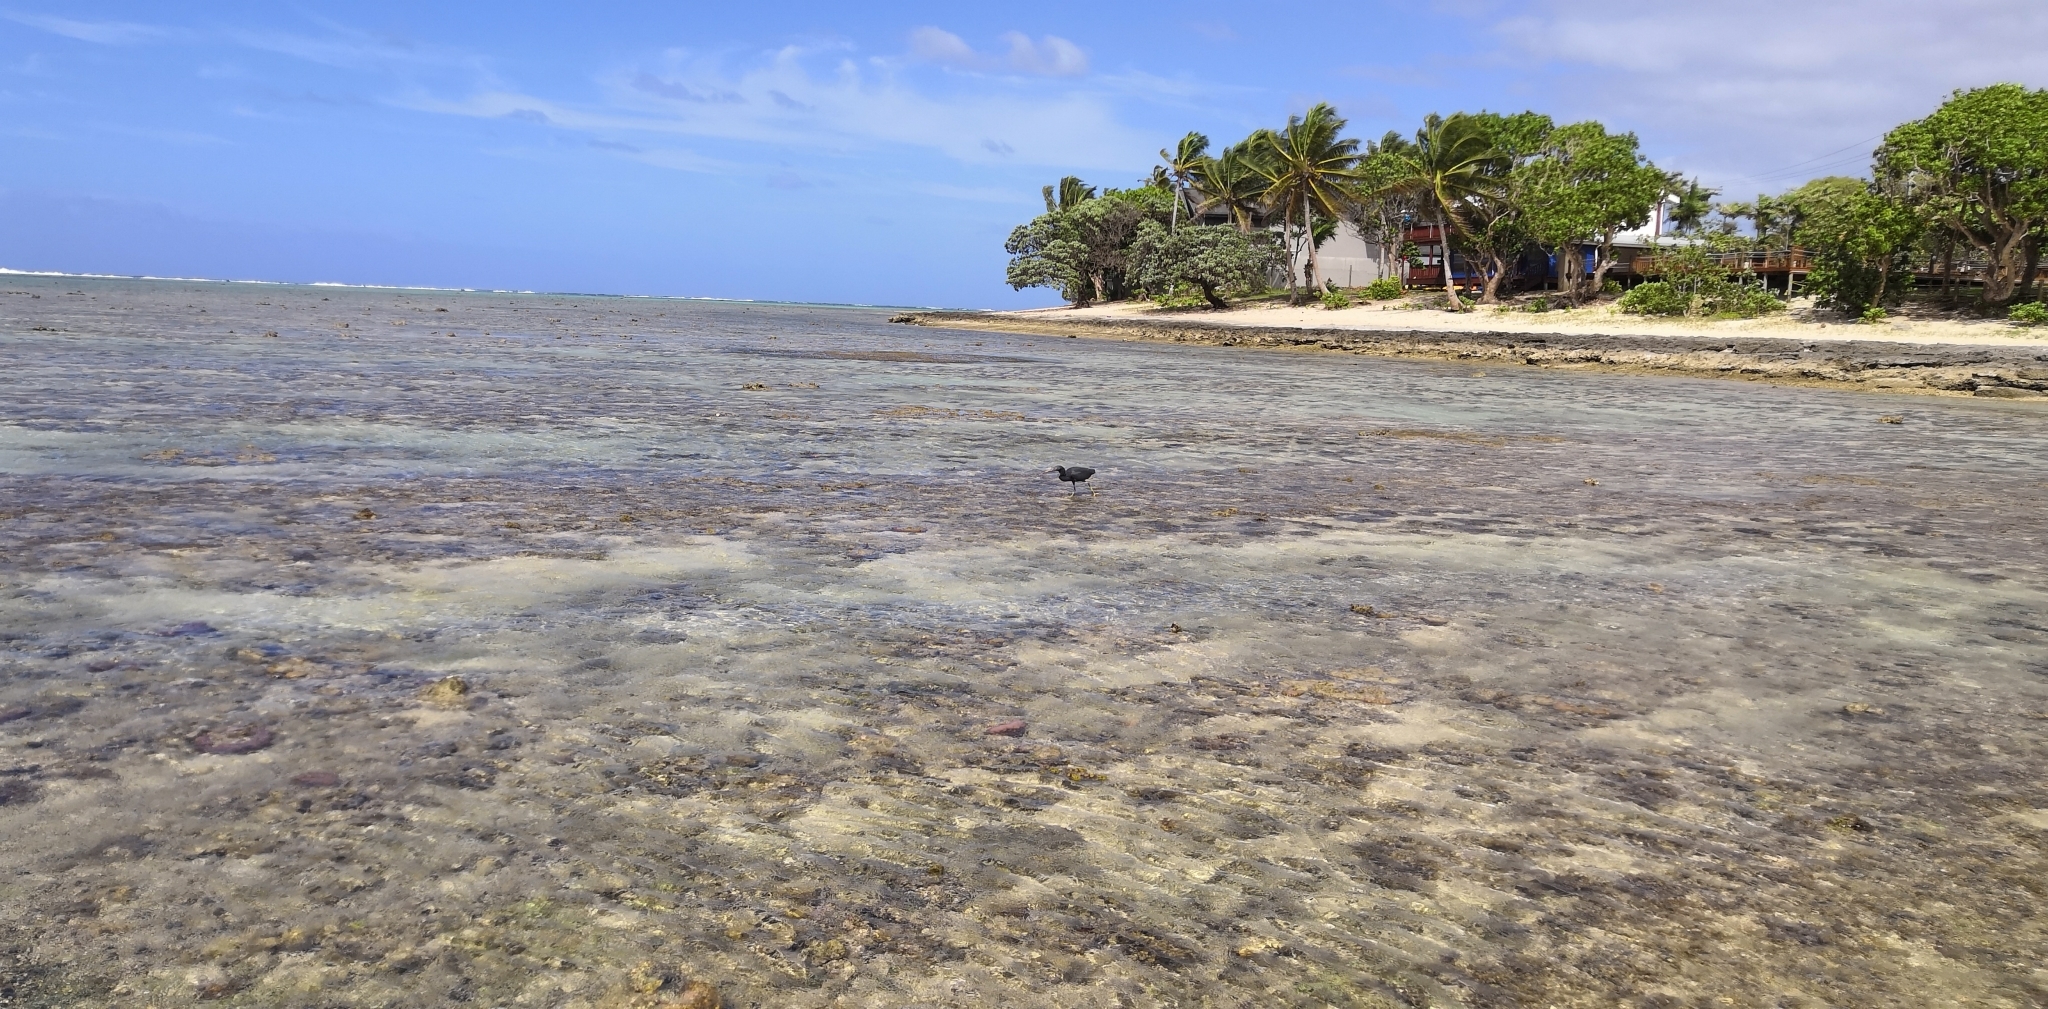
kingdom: Animalia
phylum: Chordata
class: Aves
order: Pelecaniformes
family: Ardeidae
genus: Egretta
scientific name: Egretta sacra
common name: Pacific reef heron
